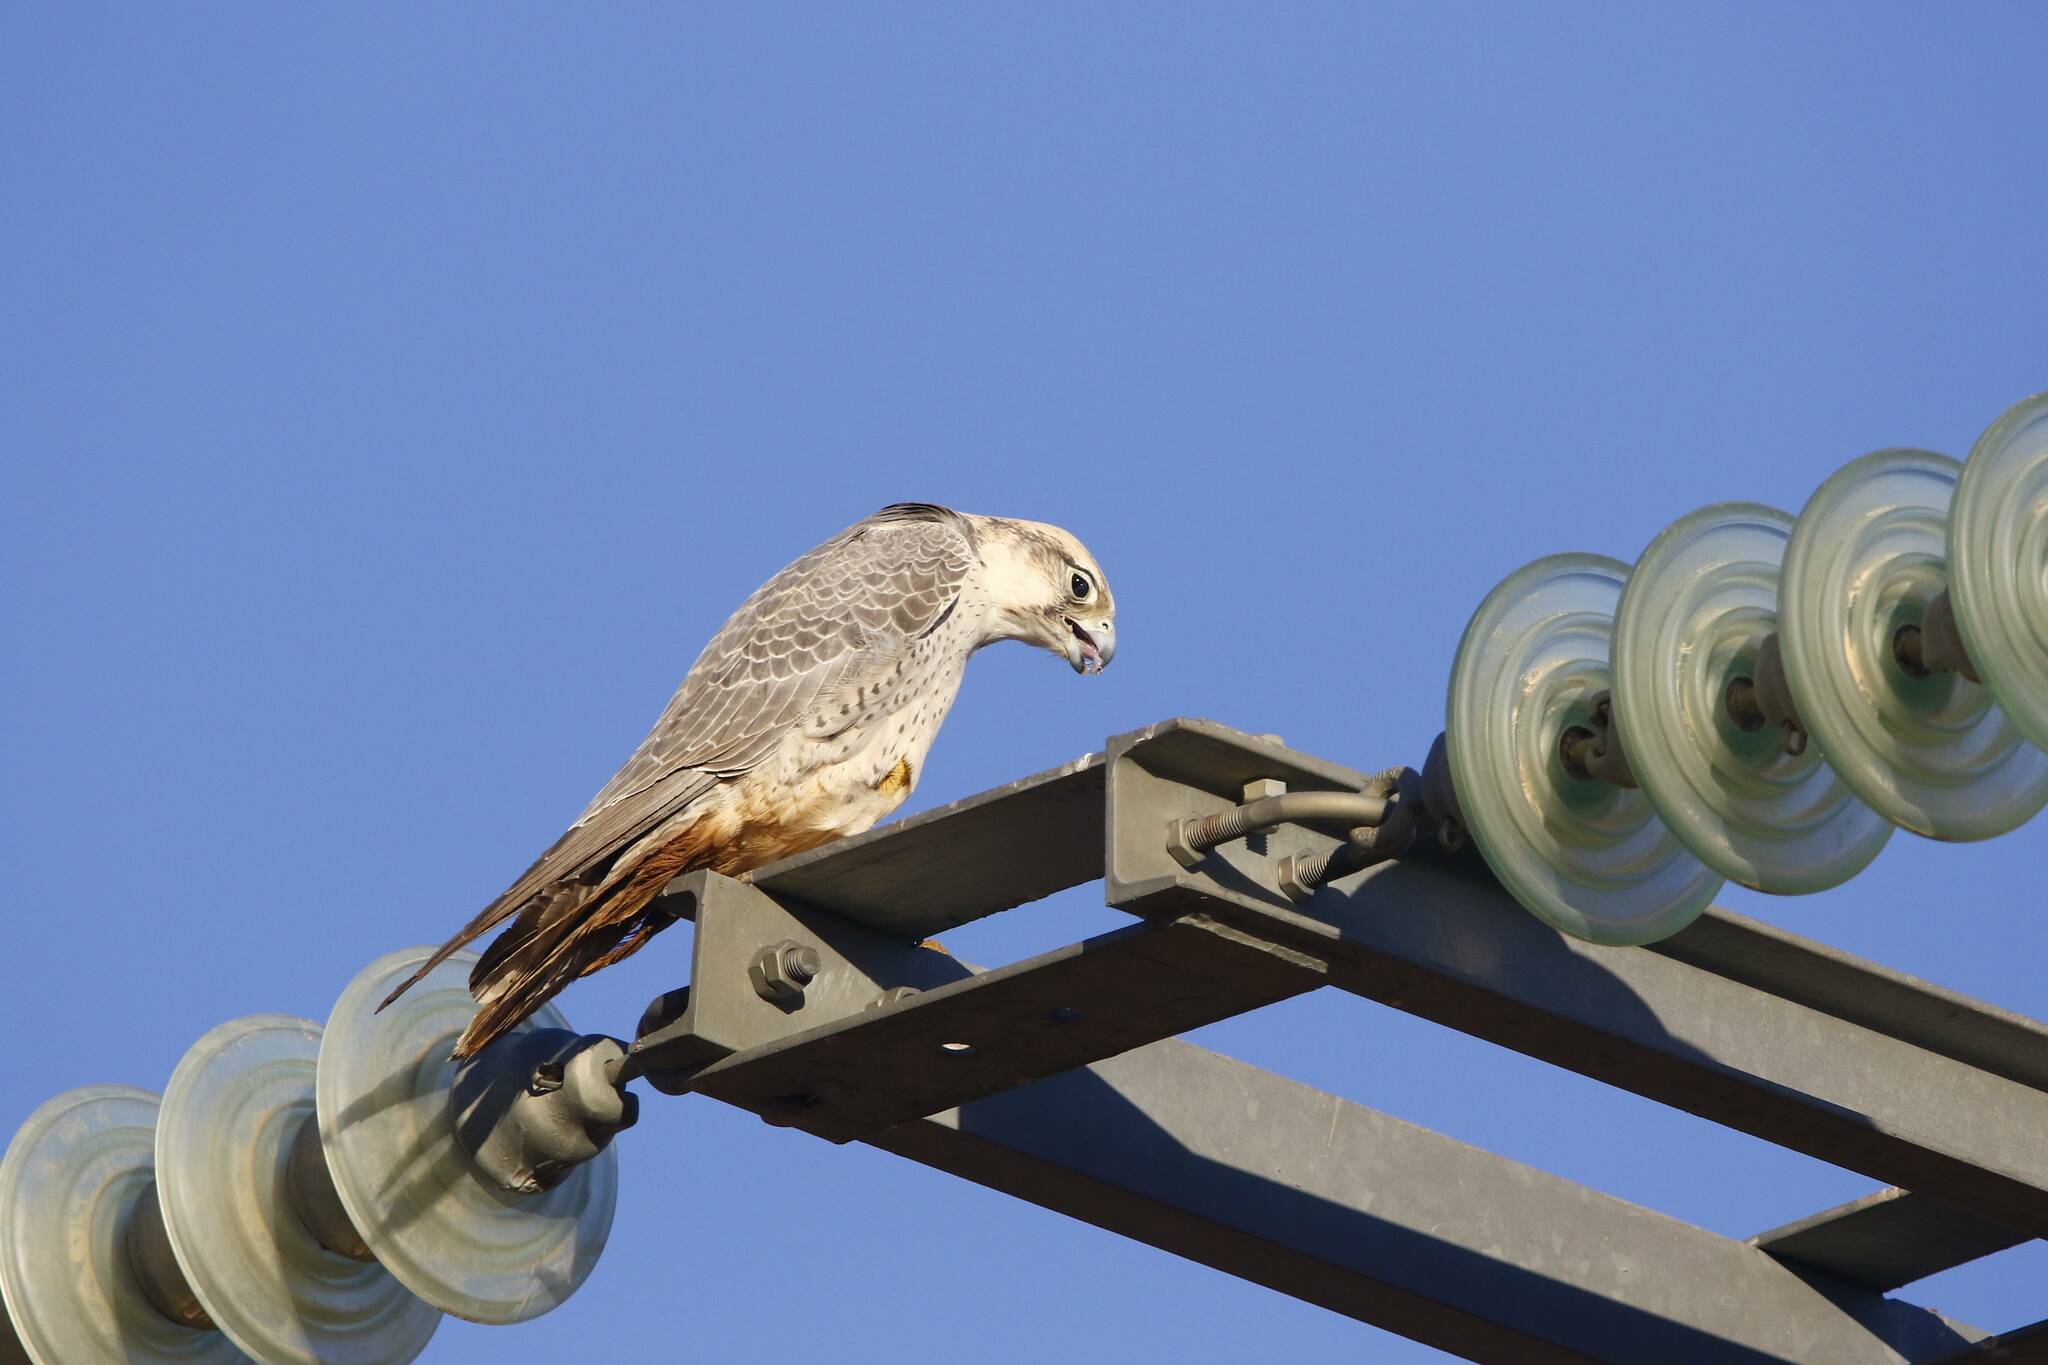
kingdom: Animalia
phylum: Chordata
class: Aves
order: Falconiformes
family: Falconidae
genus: Falco
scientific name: Falco biarmicus
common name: Lanner falcon
